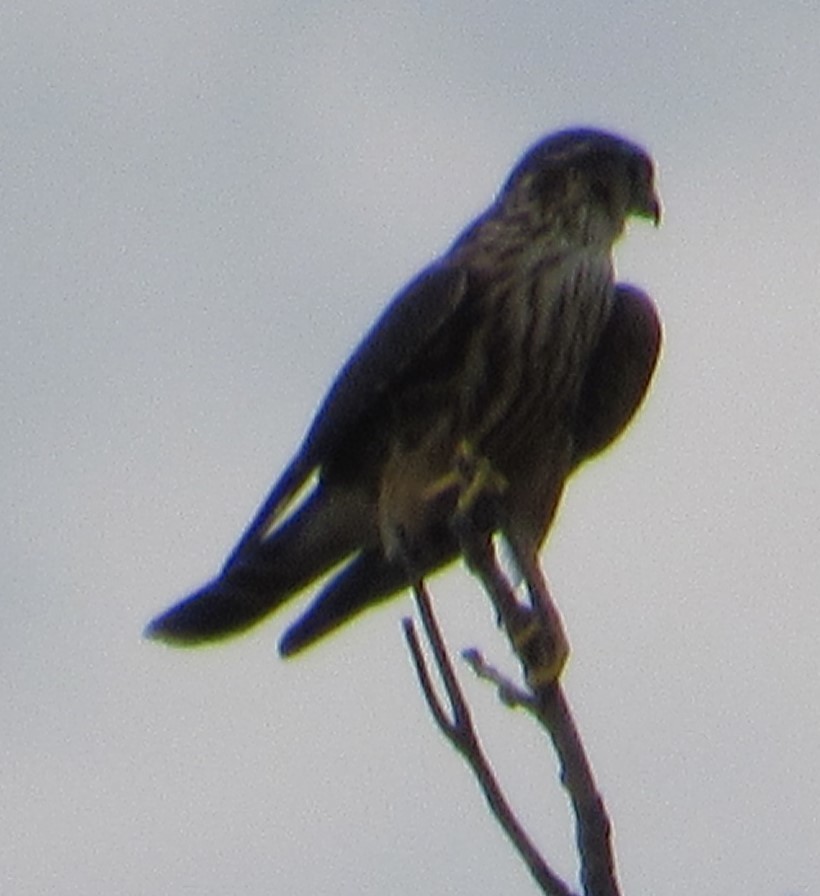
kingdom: Animalia
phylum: Chordata
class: Aves
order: Falconiformes
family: Falconidae
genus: Falco
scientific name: Falco columbarius
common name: Merlin
